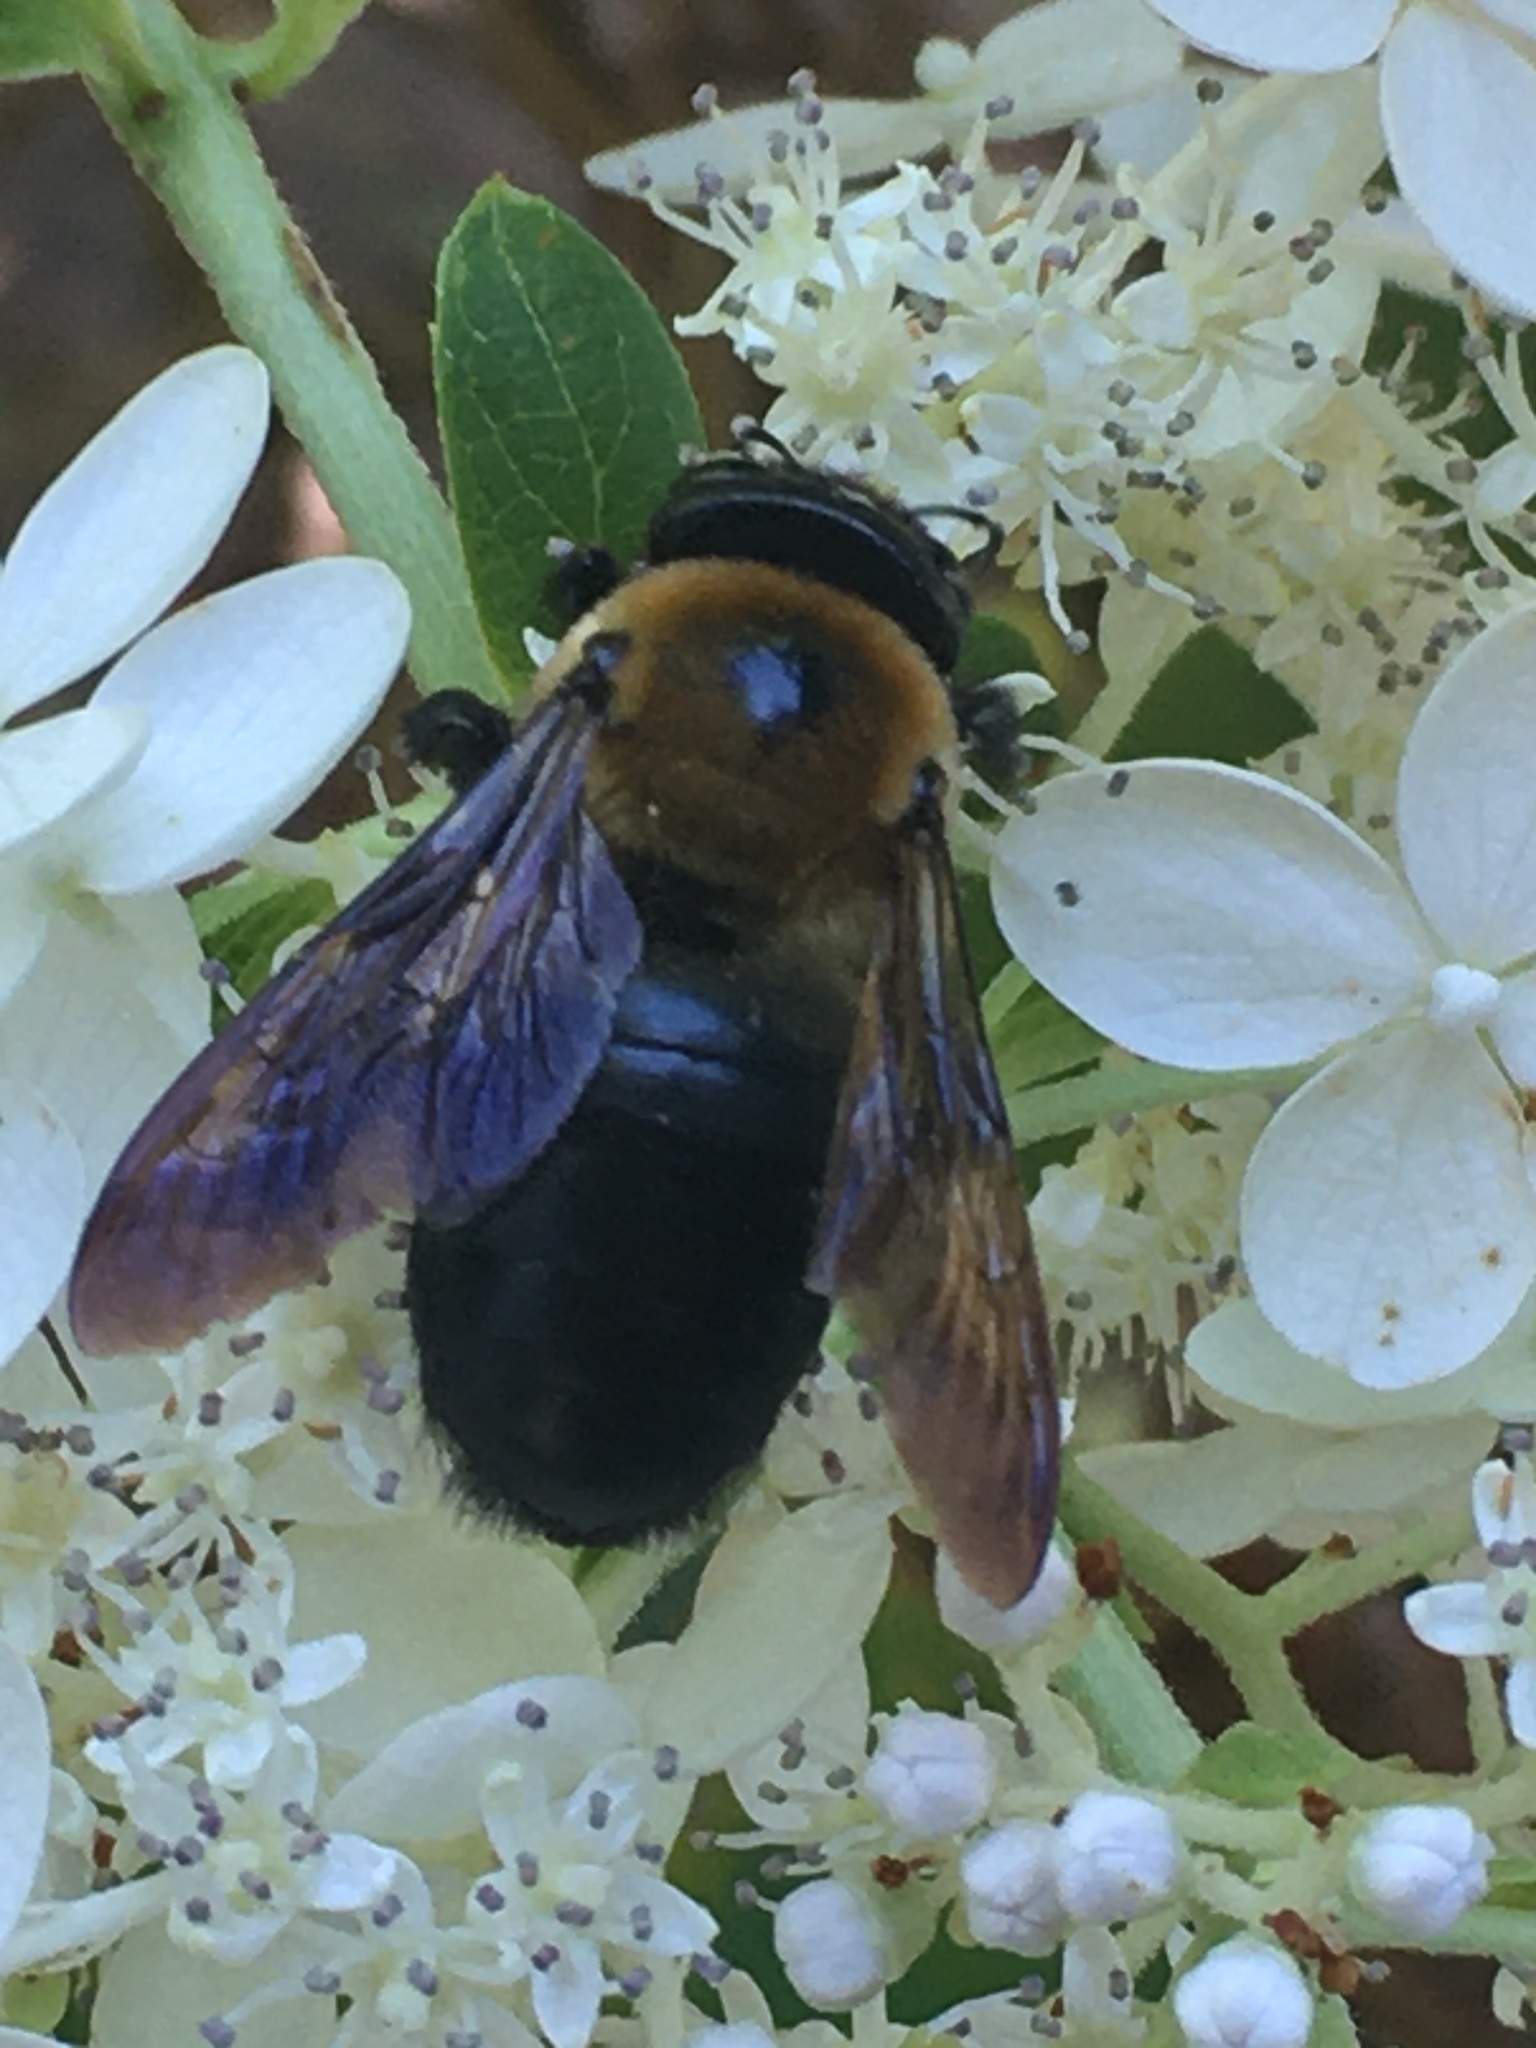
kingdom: Animalia
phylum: Arthropoda
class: Insecta
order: Hymenoptera
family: Apidae
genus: Xylocopa
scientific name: Xylocopa virginica
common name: Carpenter bee
